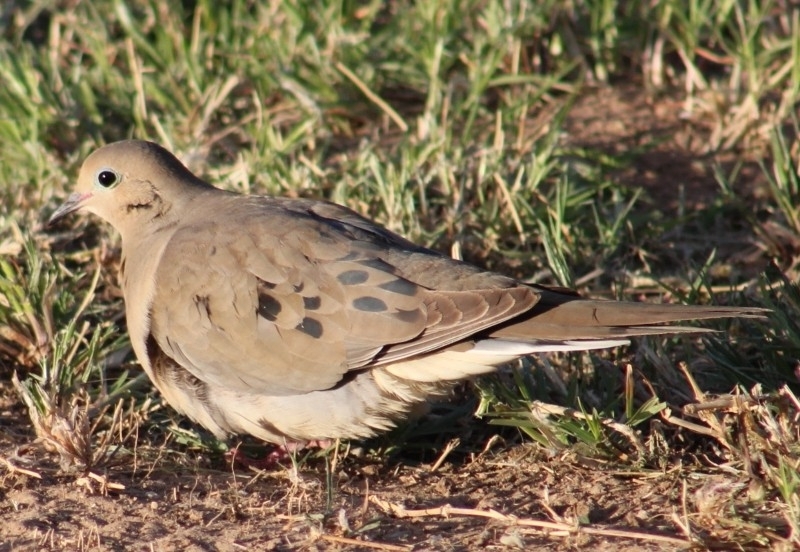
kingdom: Animalia
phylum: Chordata
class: Aves
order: Columbiformes
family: Columbidae
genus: Zenaida
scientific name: Zenaida macroura
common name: Mourning dove
